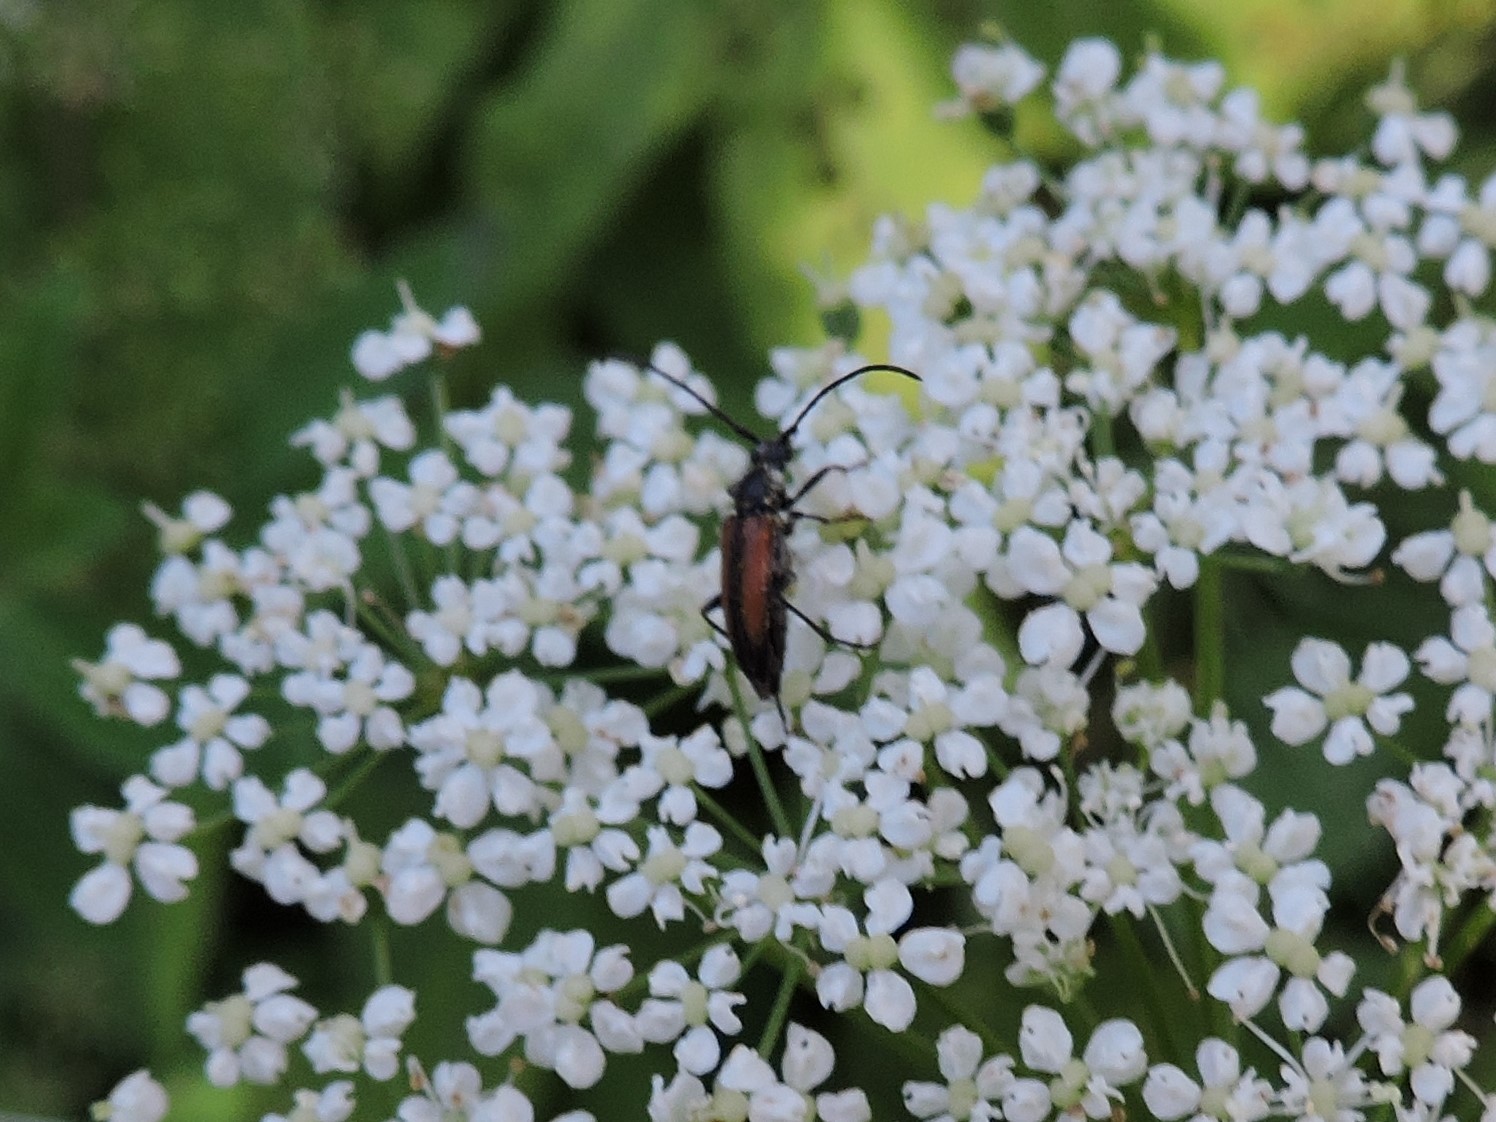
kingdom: Animalia
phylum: Arthropoda
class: Insecta
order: Coleoptera
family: Cerambycidae
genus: Stenurella
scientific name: Stenurella melanura
